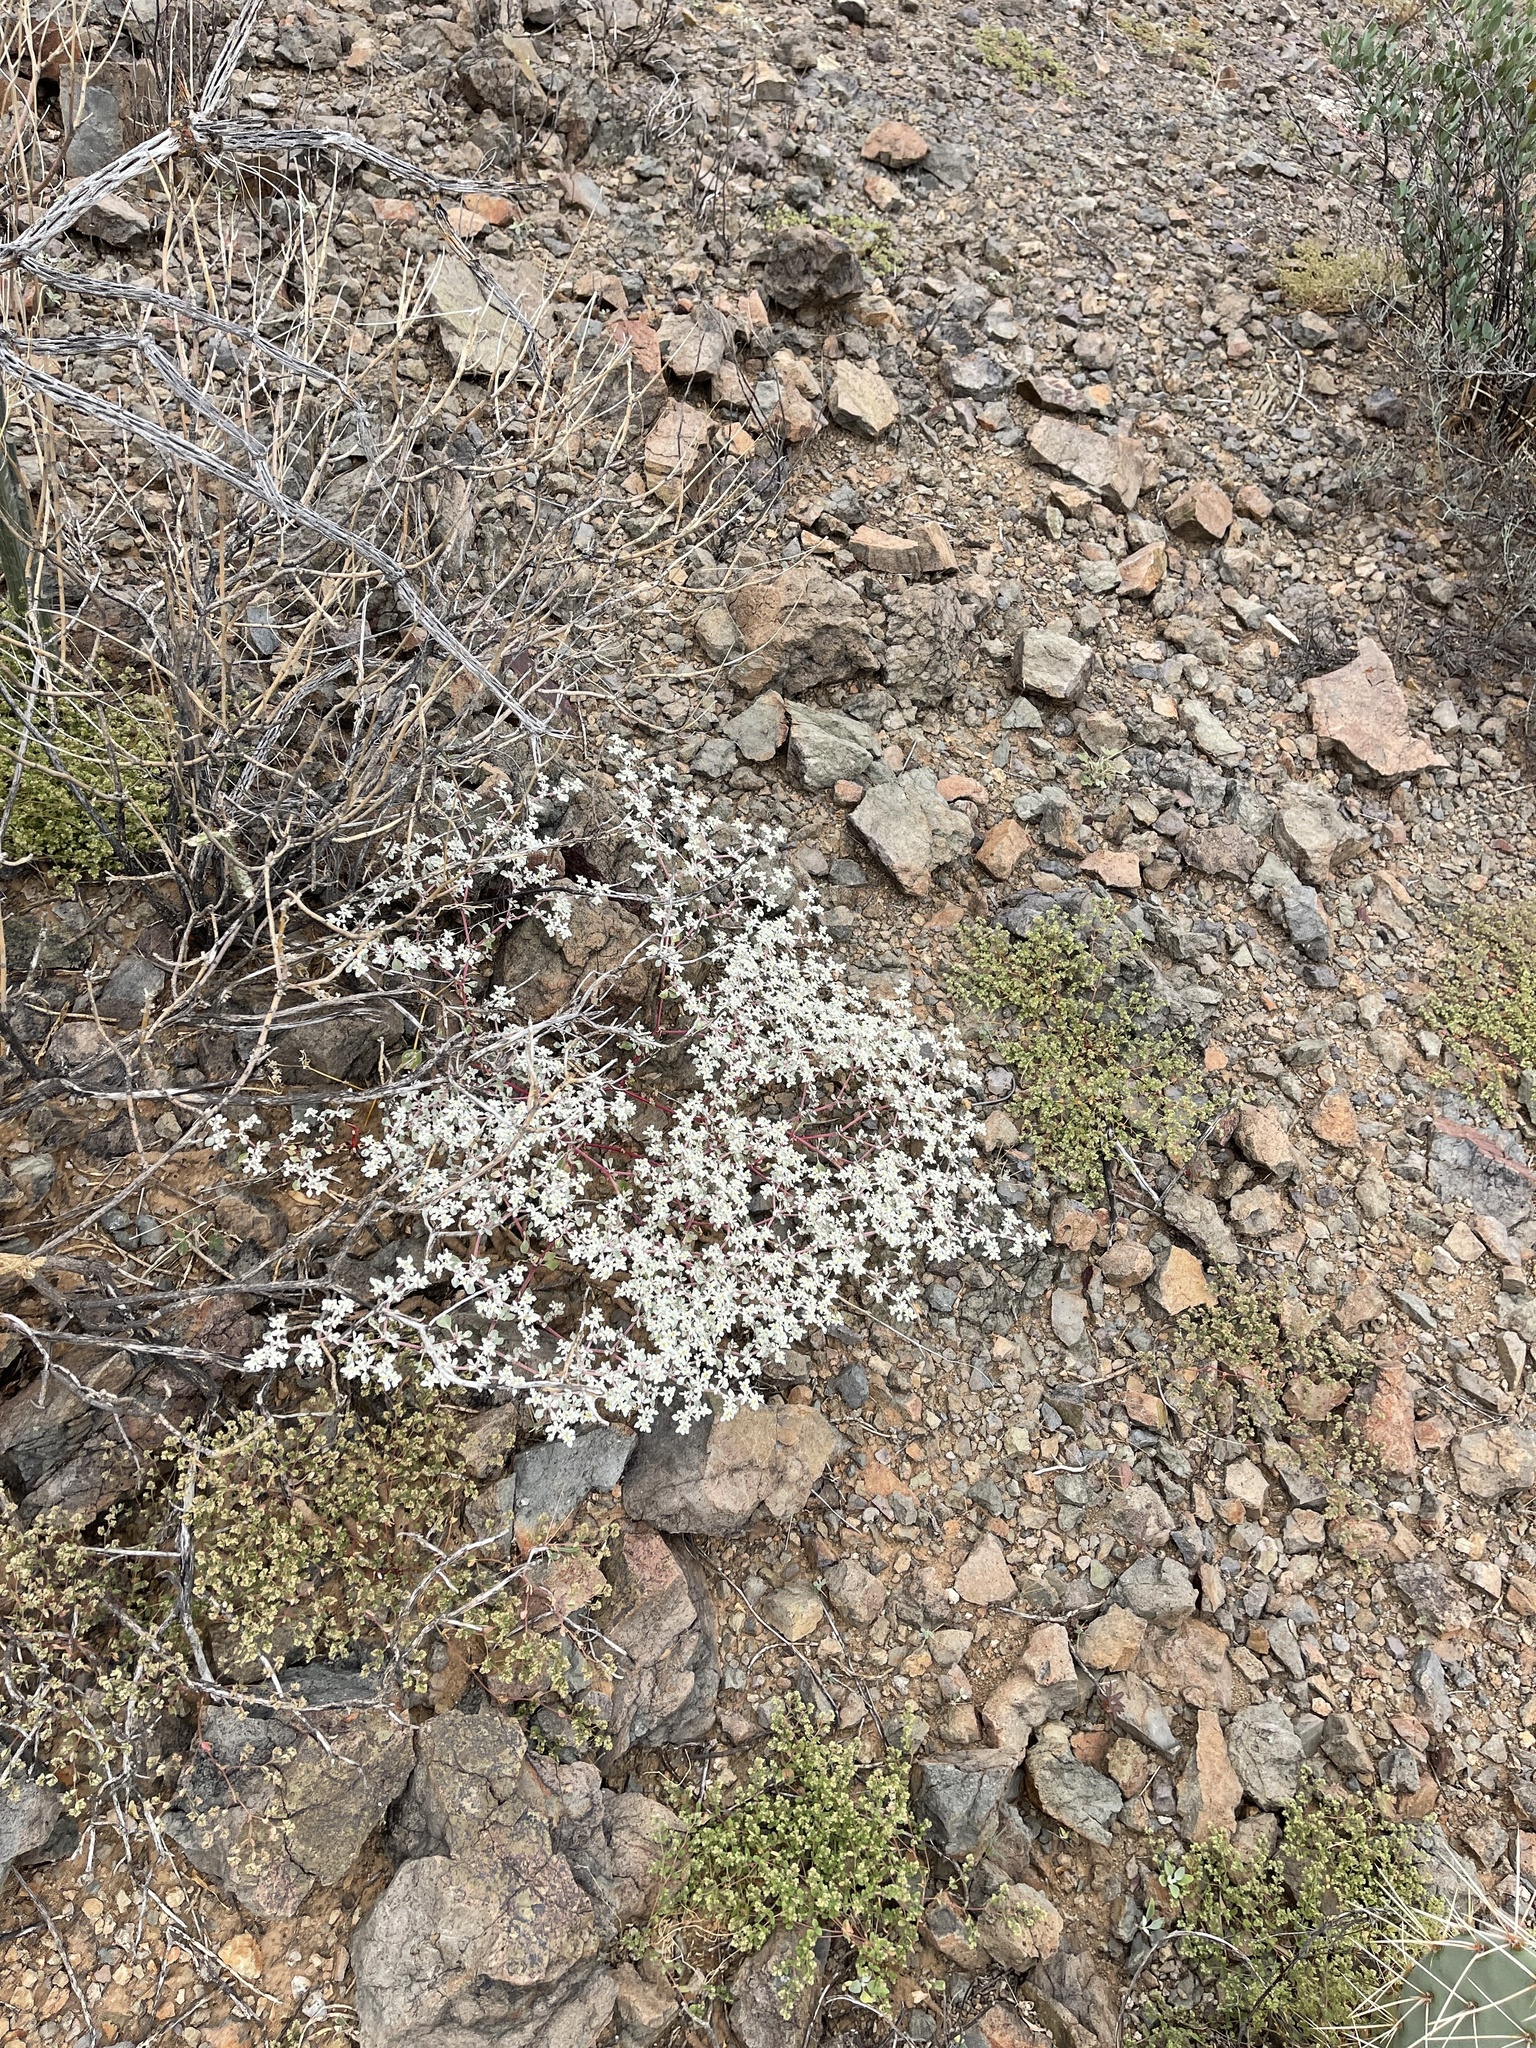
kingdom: Plantae
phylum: Tracheophyta
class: Magnoliopsida
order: Caryophyllales
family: Amaranthaceae
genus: Tidestromia
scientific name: Tidestromia lanuginosa
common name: Woolly tidestromia
